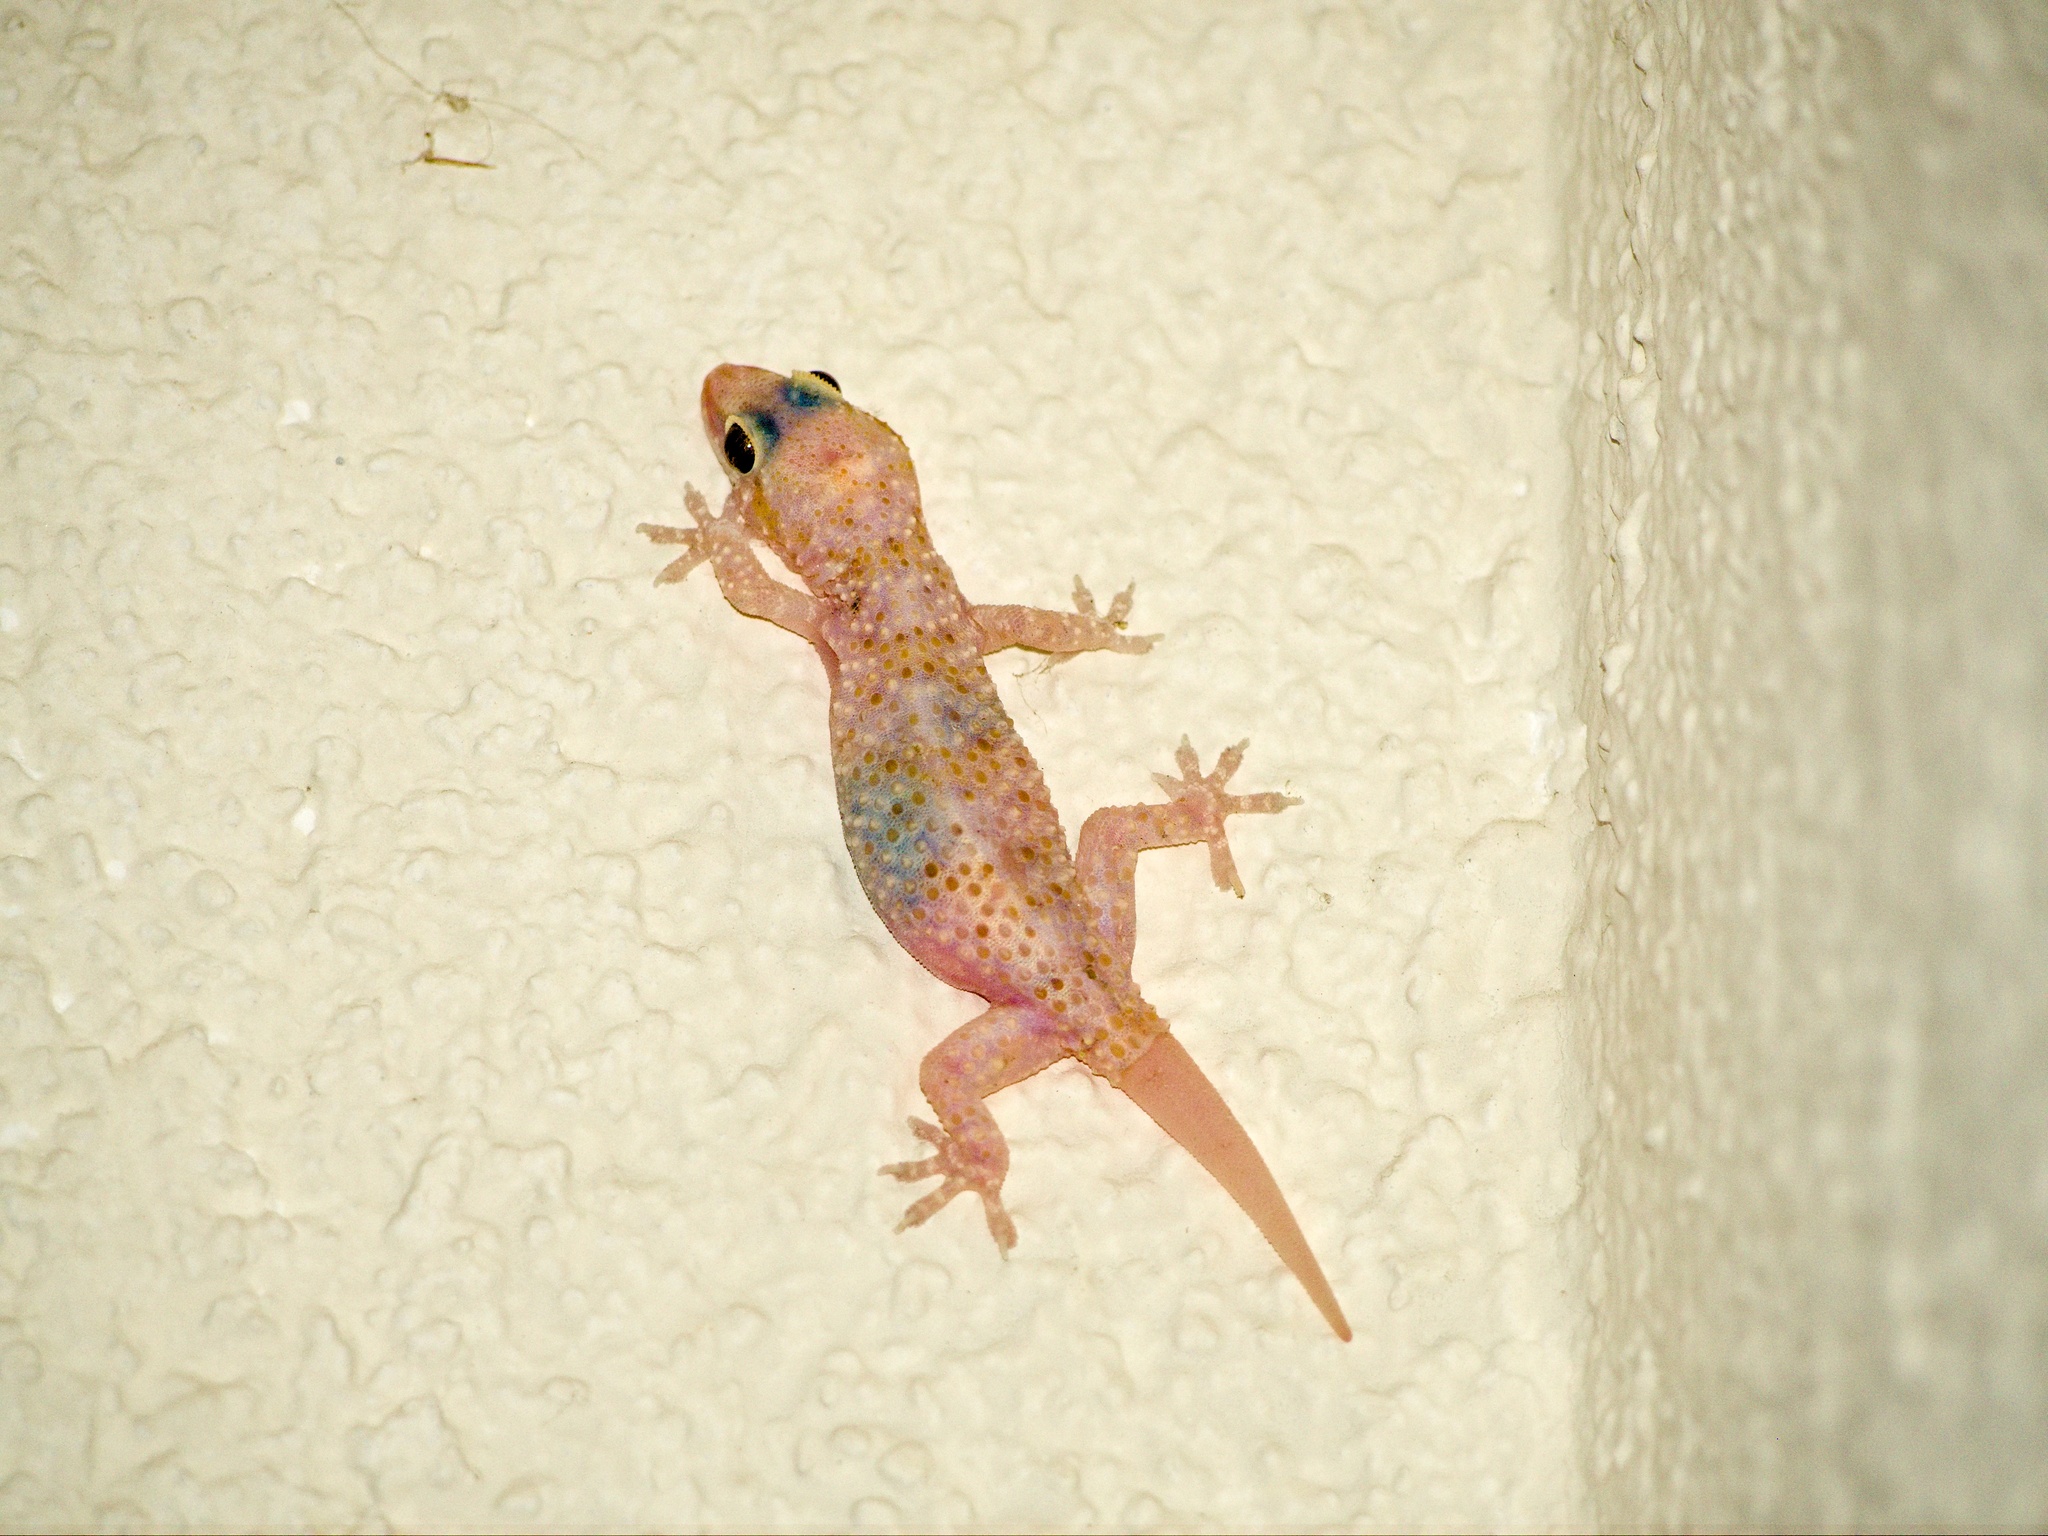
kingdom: Animalia
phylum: Chordata
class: Squamata
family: Gekkonidae
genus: Hemidactylus
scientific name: Hemidactylus turcicus
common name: Turkish gecko
